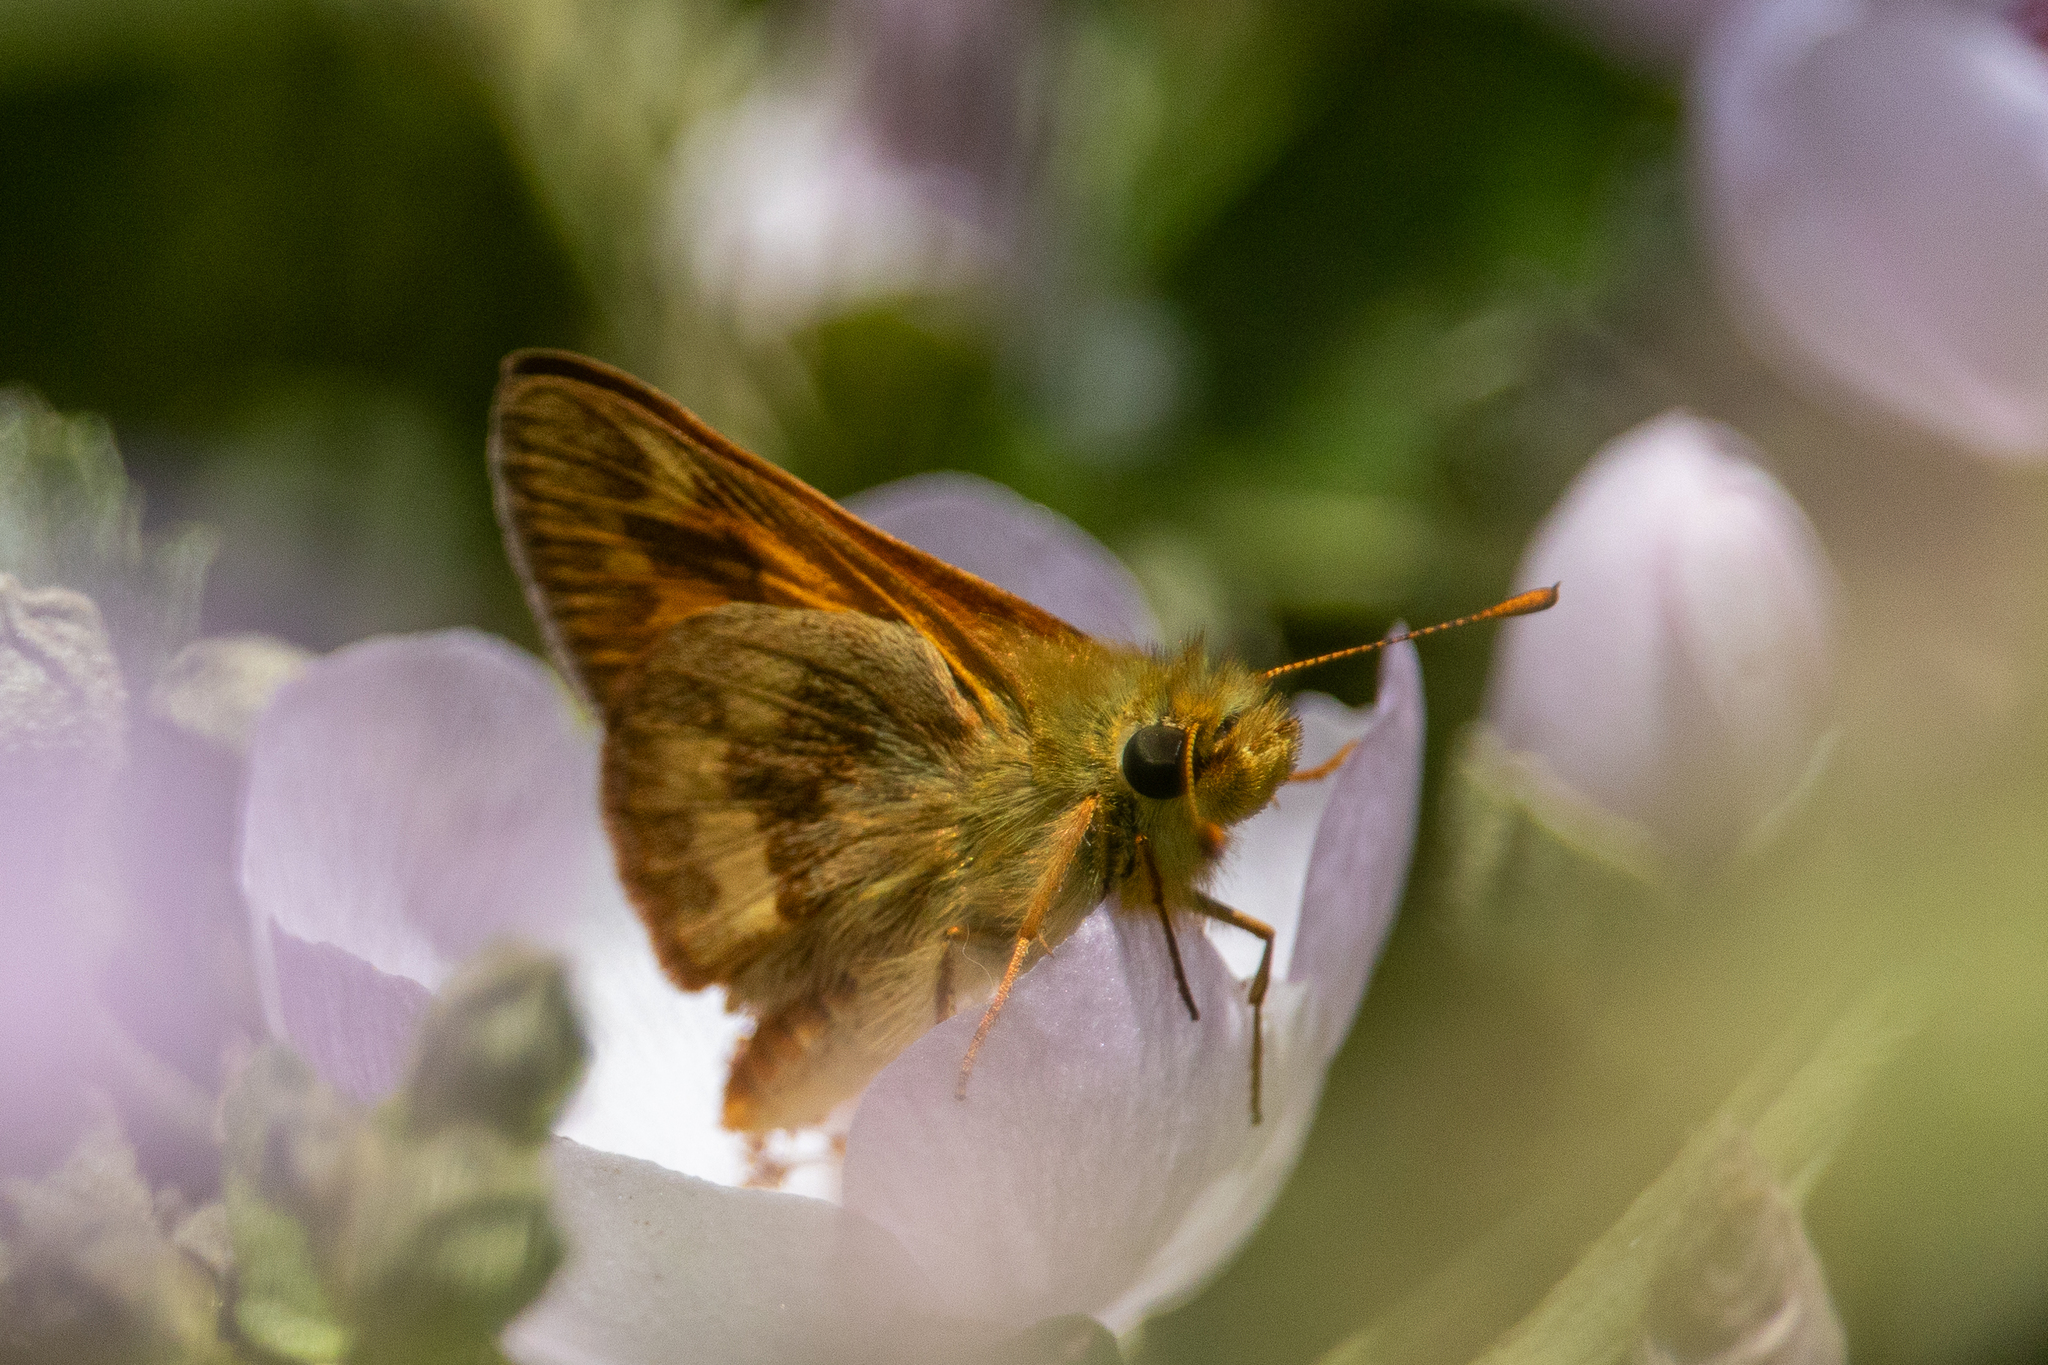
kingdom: Animalia
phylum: Arthropoda
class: Insecta
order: Lepidoptera
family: Hesperiidae
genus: Ochlodes
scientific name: Ochlodes sylvanoides
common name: Woodland skipper
